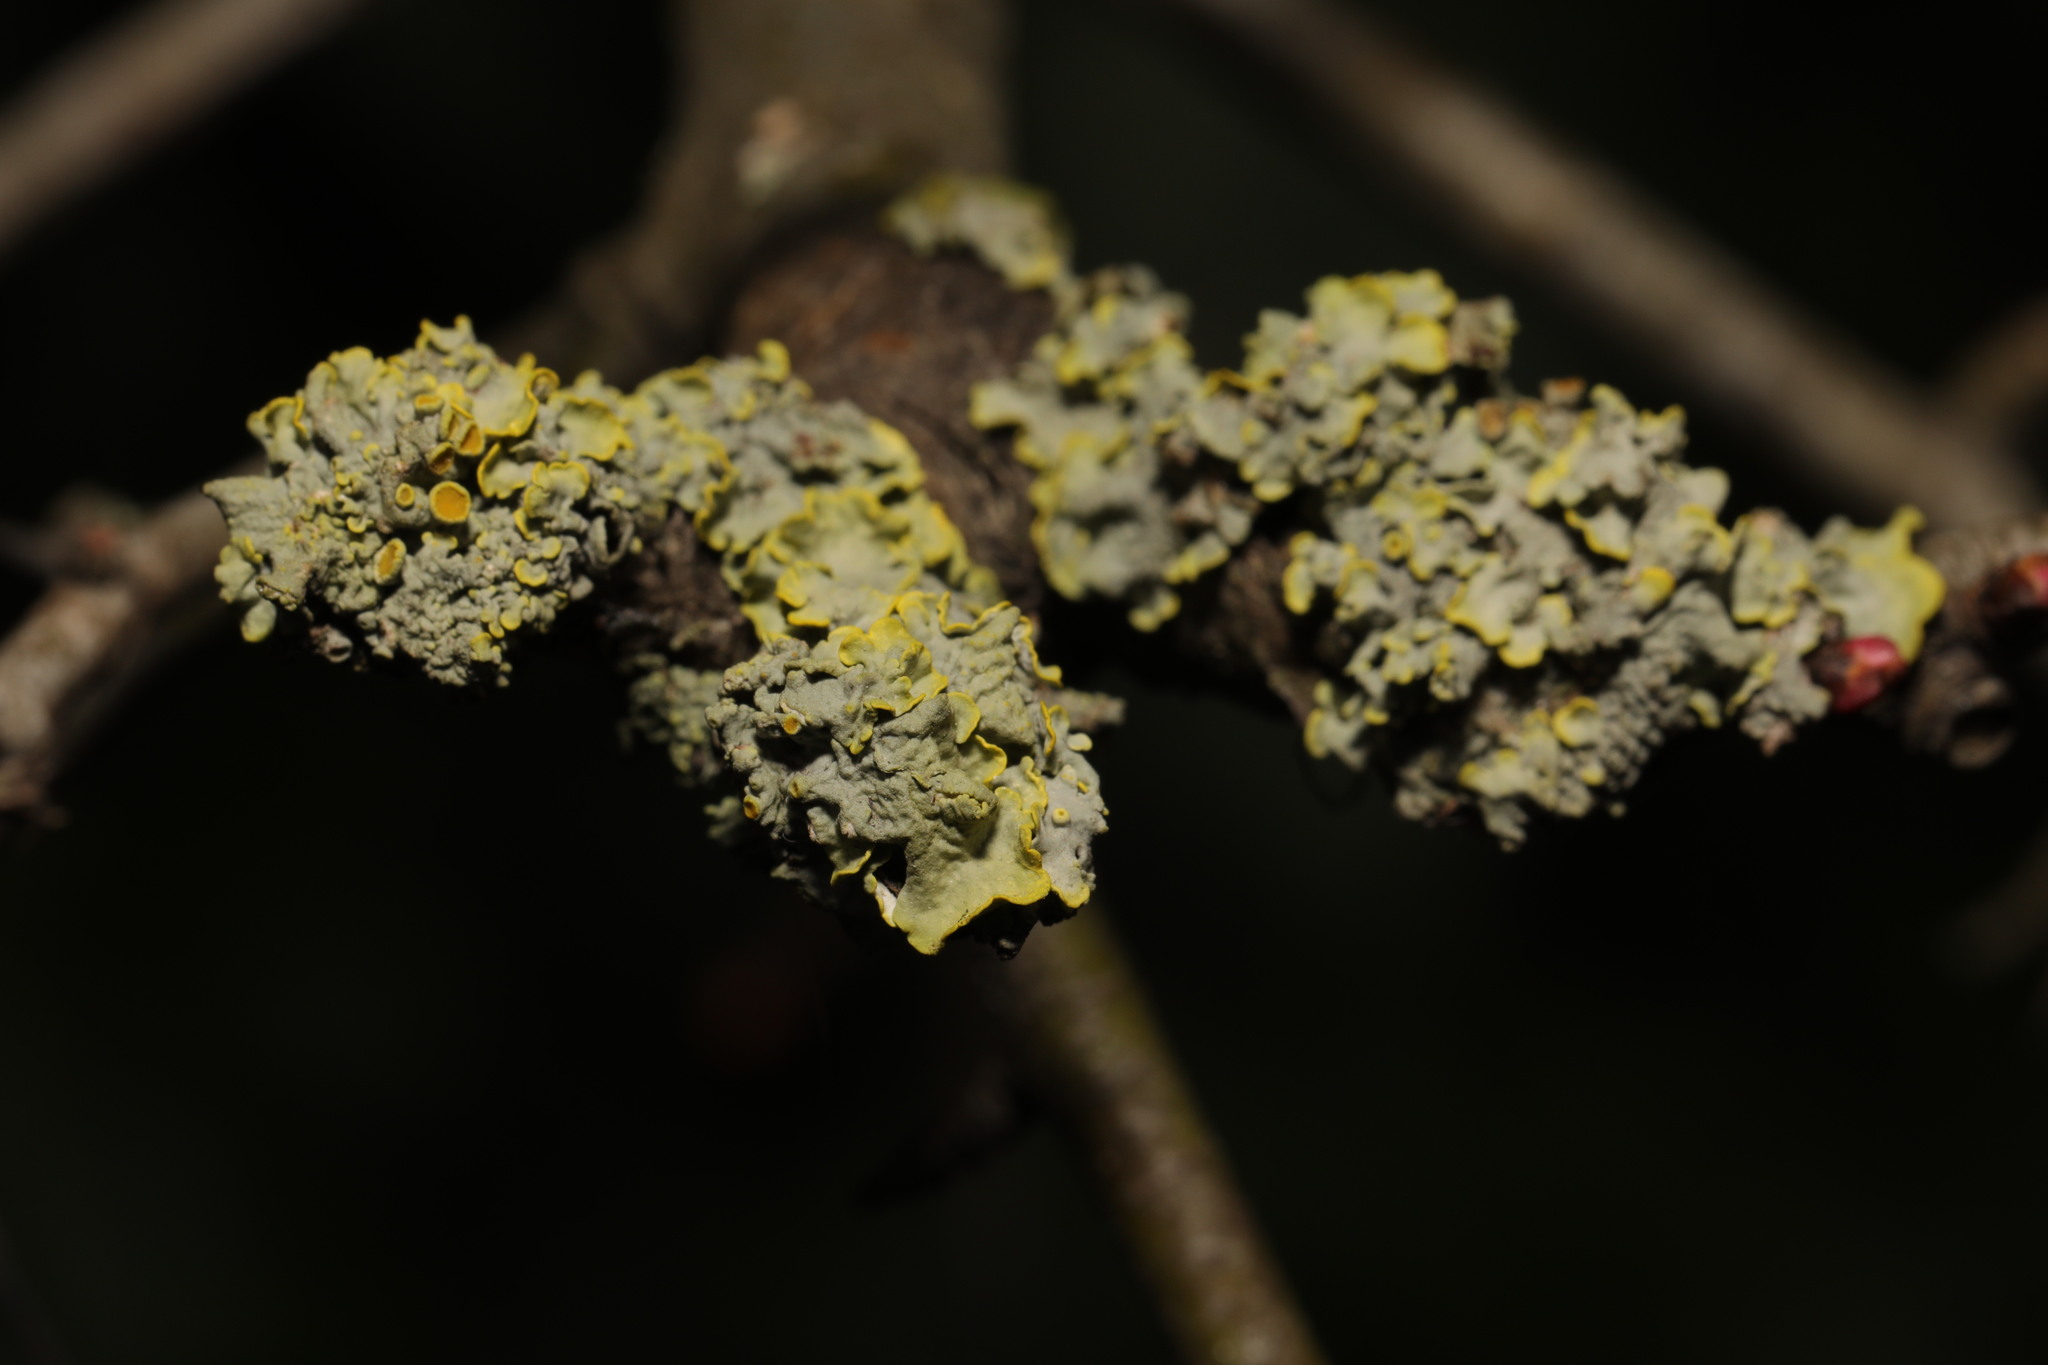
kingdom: Fungi
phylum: Ascomycota
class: Lecanoromycetes
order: Teloschistales
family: Teloschistaceae
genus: Xanthoria
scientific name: Xanthoria parietina
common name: Common orange lichen
